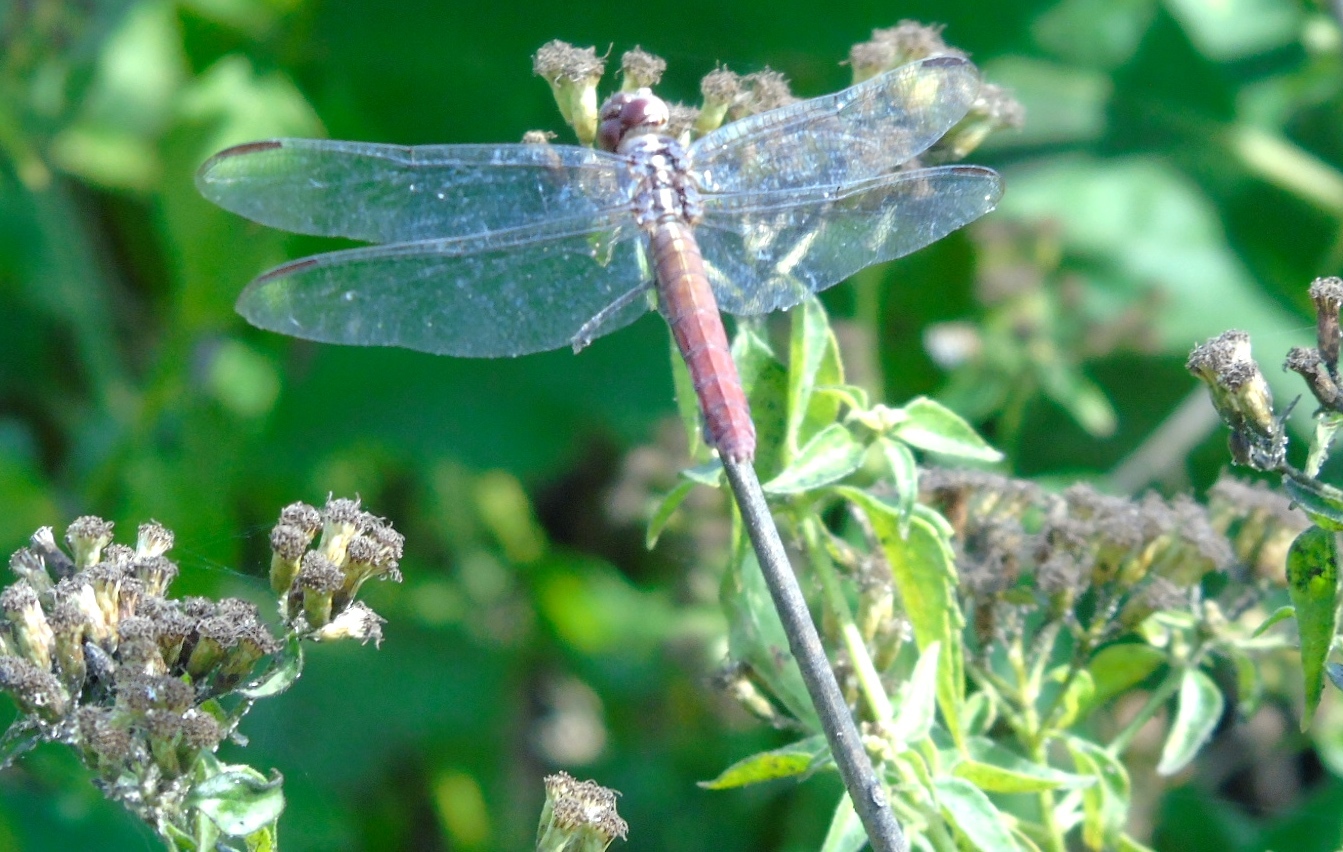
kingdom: Animalia
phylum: Arthropoda
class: Insecta
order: Odonata
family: Libellulidae
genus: Orthemis
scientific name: Orthemis ferruginea
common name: Roseate skimmer
